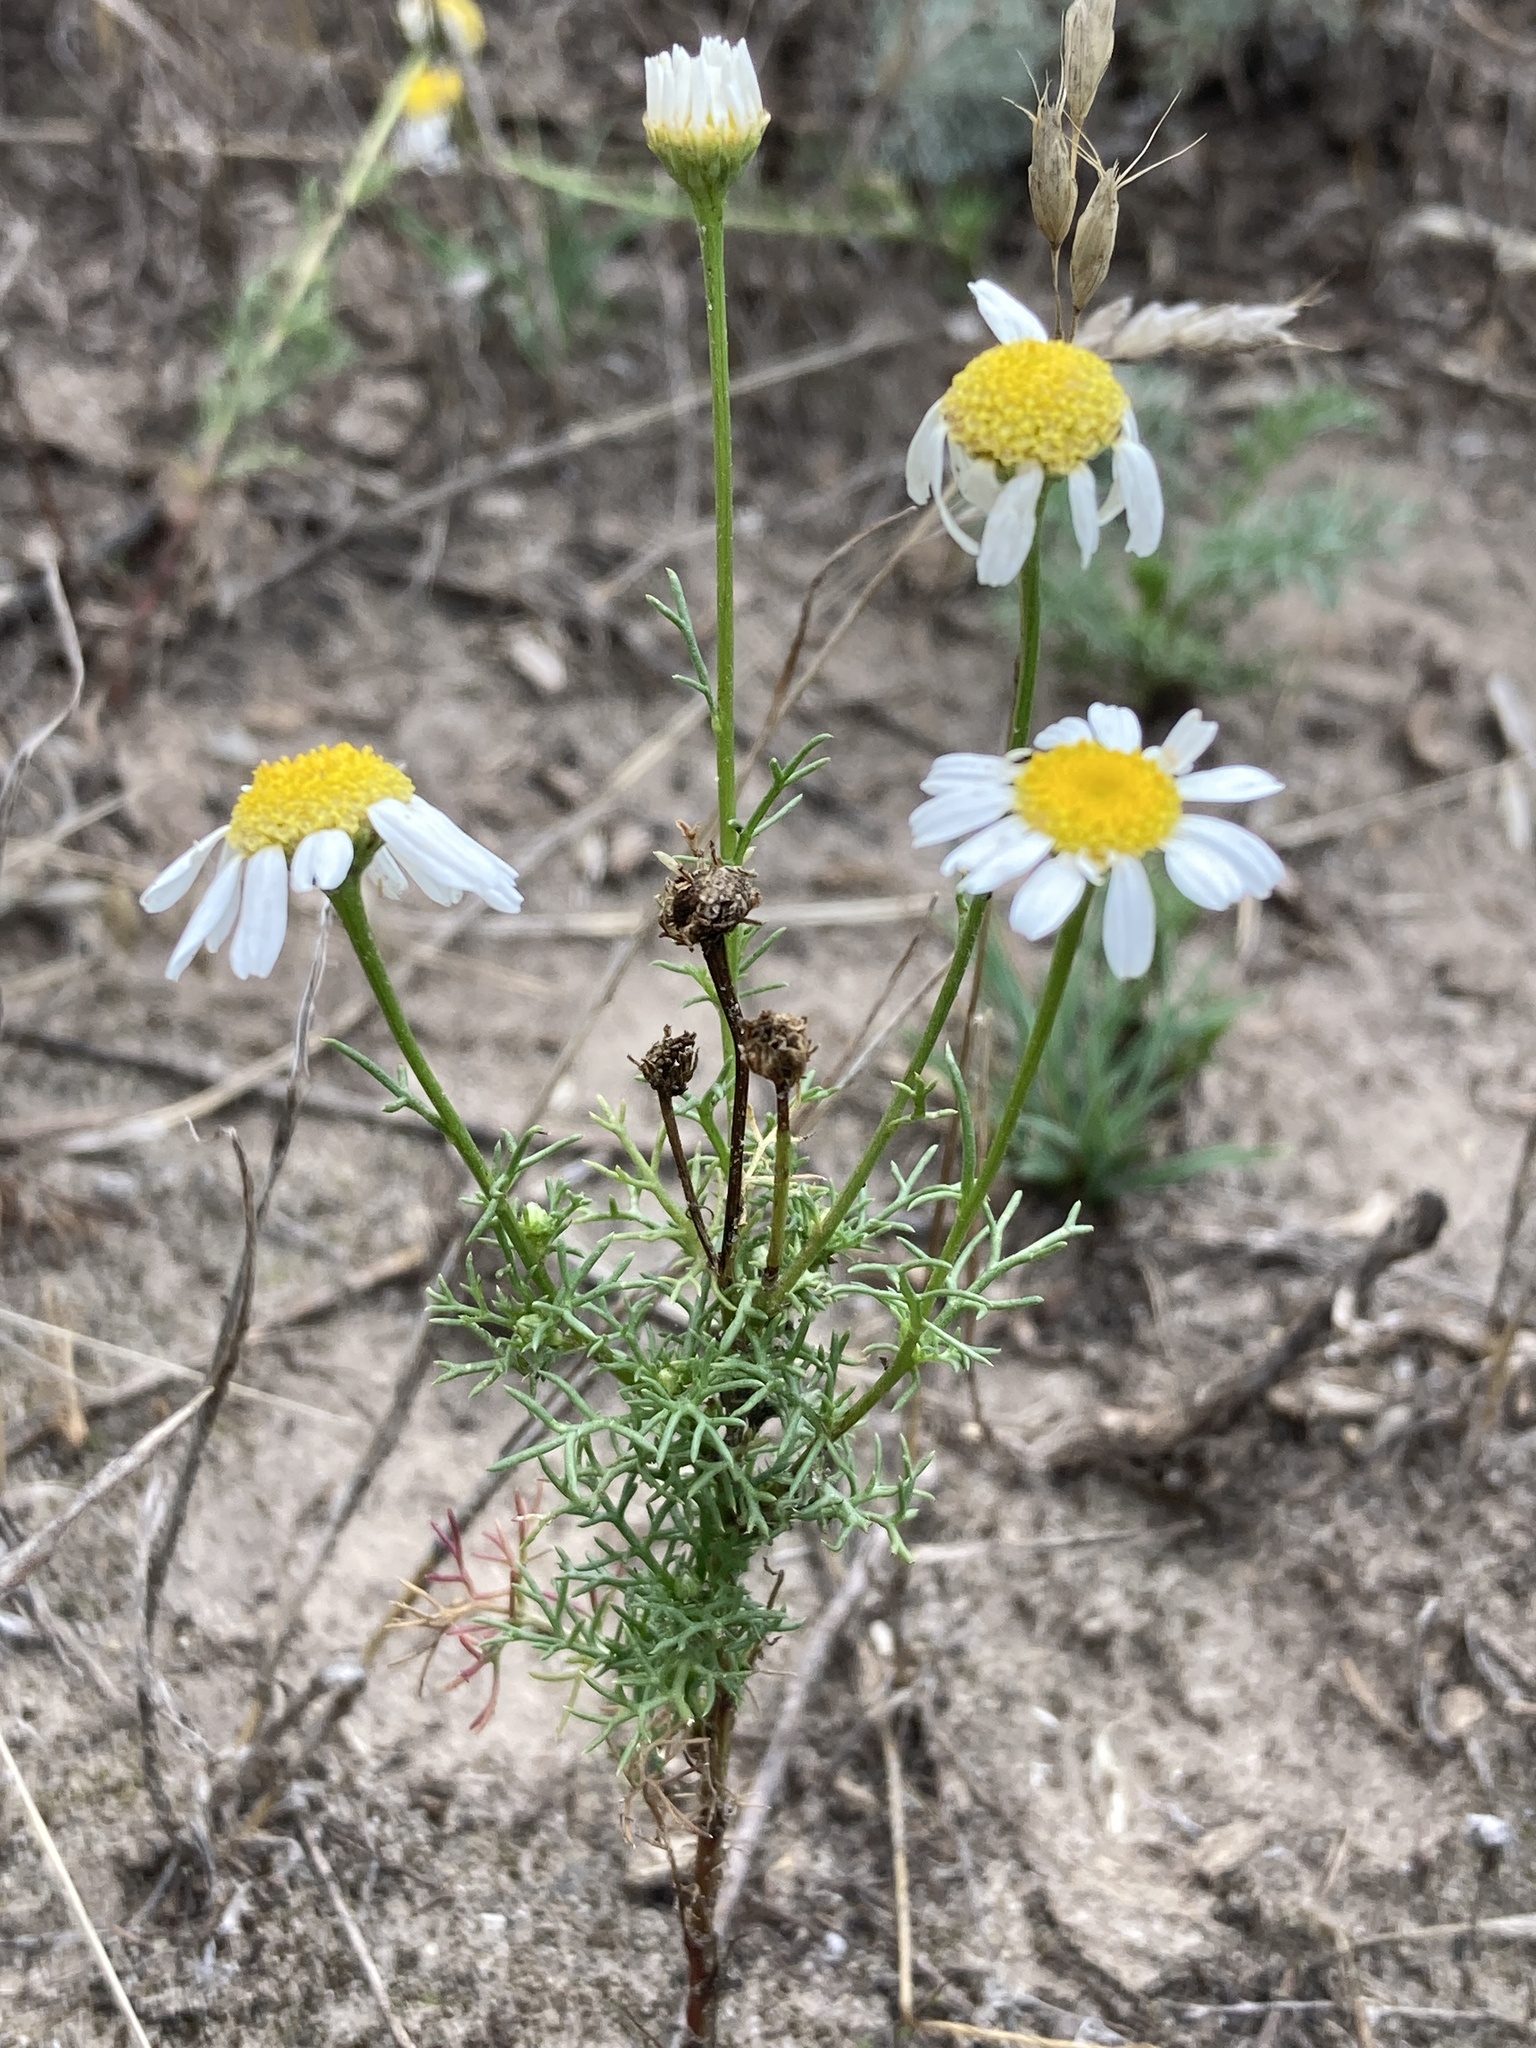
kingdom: Plantae
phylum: Tracheophyta
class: Magnoliopsida
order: Asterales
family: Asteraceae
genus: Tripleurospermum
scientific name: Tripleurospermum inodorum
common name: Scentless mayweed
